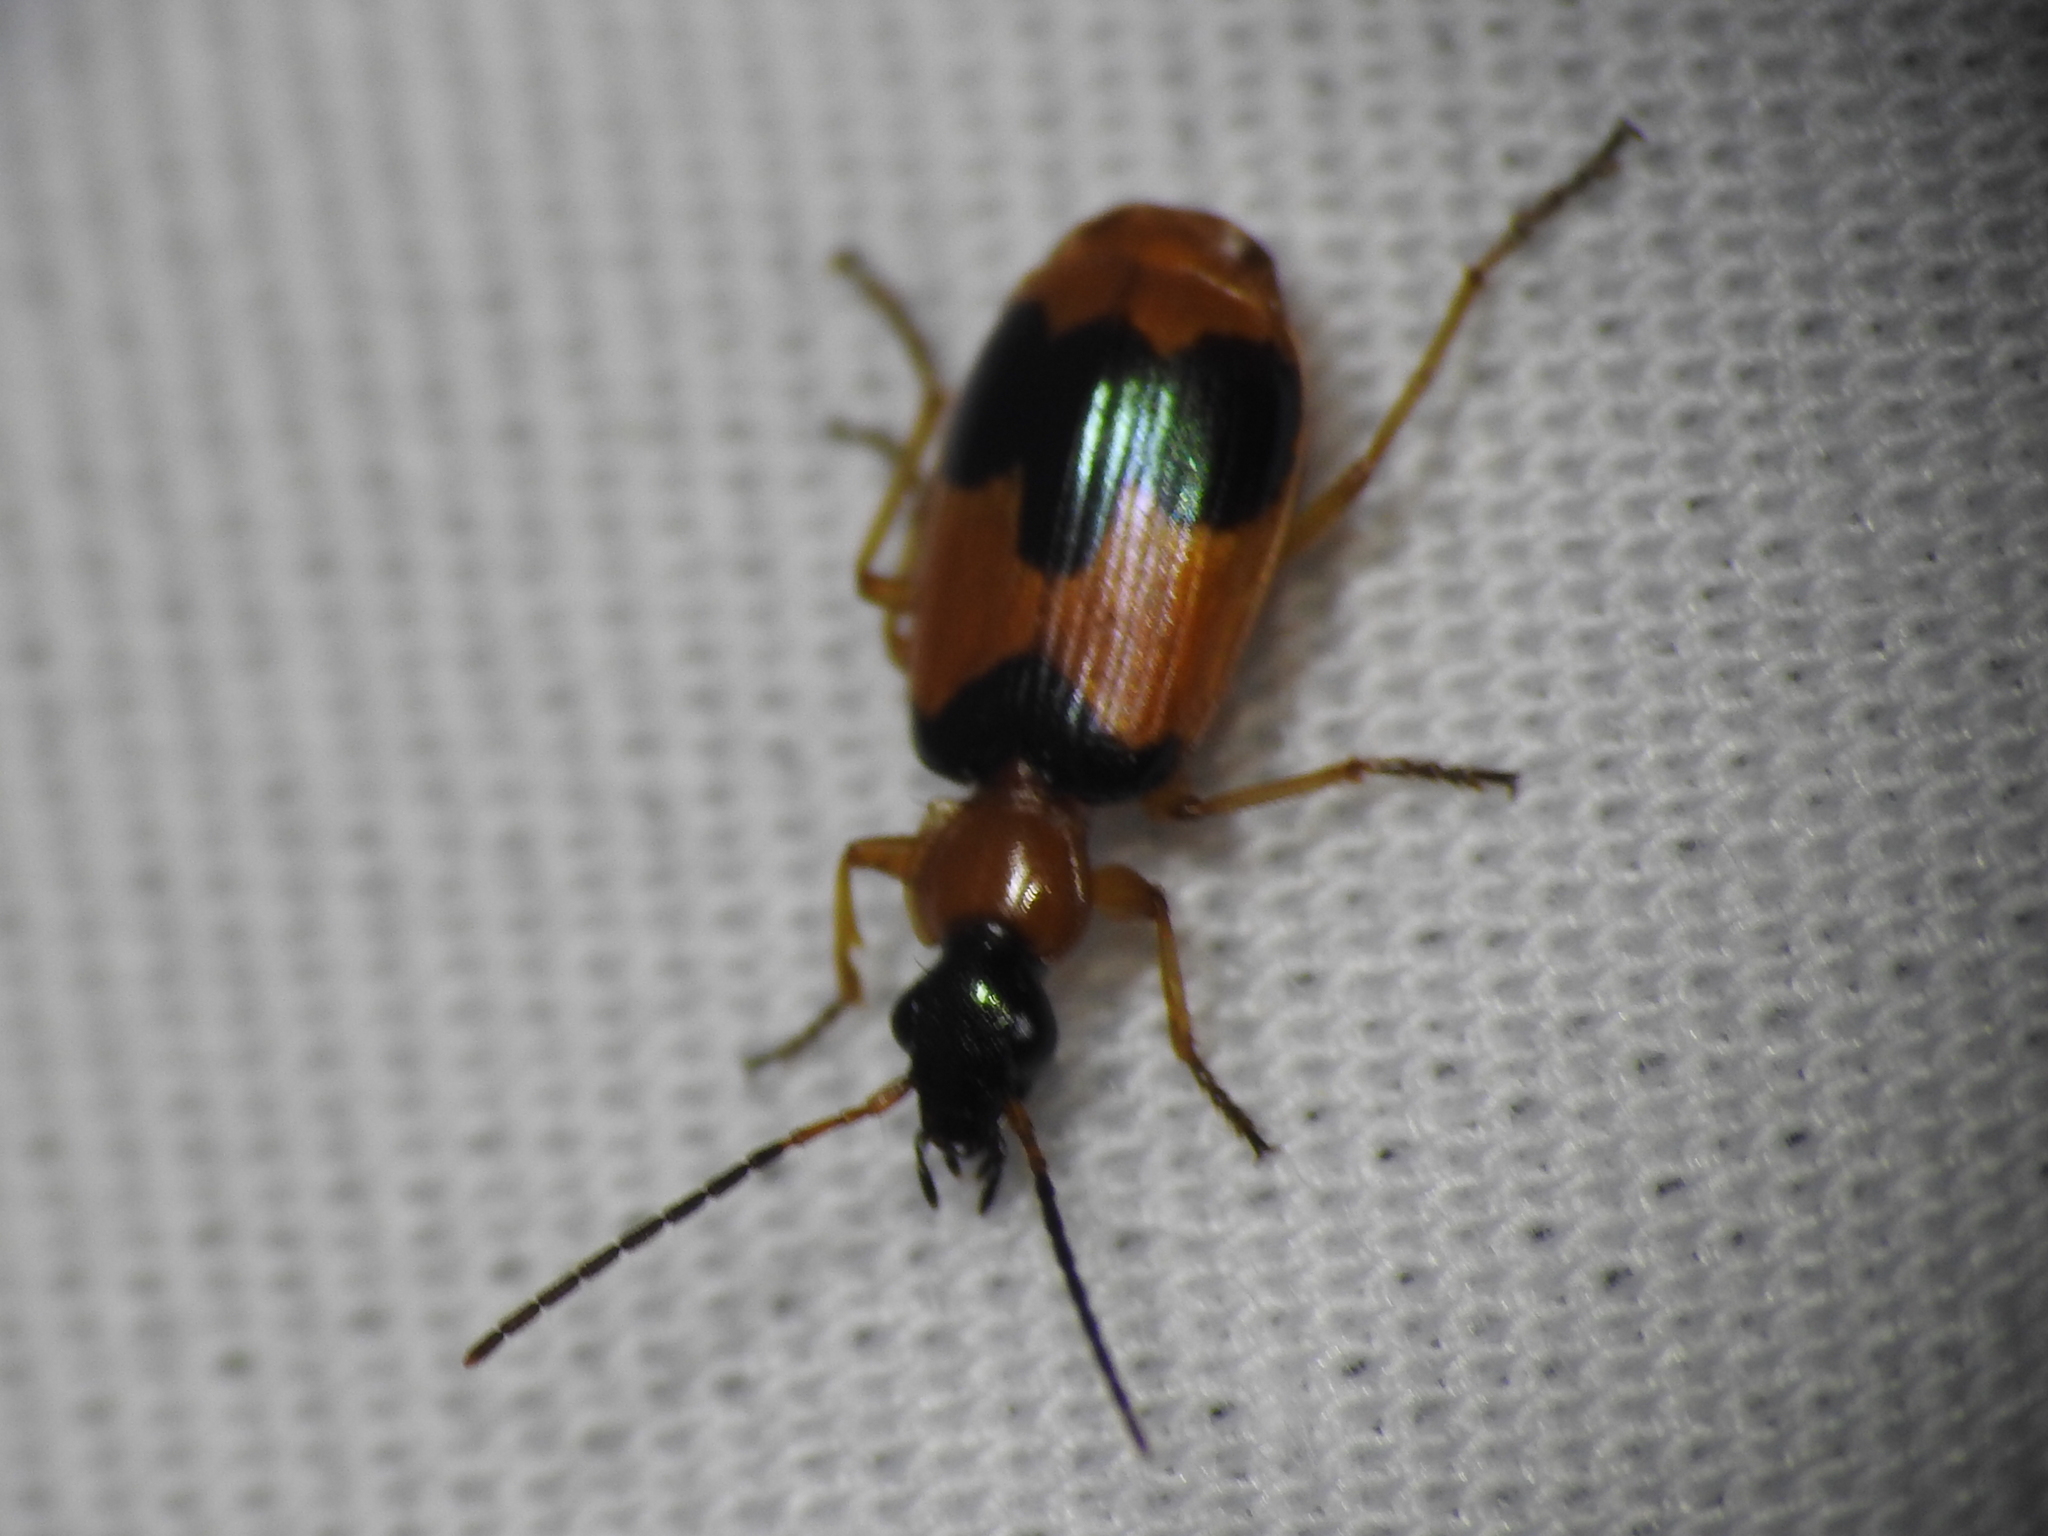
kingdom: Animalia
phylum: Arthropoda
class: Insecta
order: Coleoptera
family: Carabidae
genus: Lebia
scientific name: Lebia pulchella
